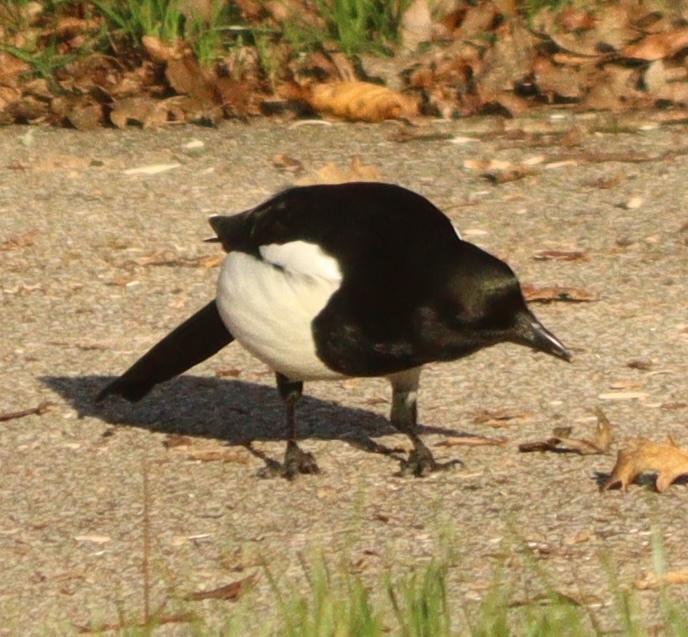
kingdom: Animalia
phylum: Chordata
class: Aves
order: Passeriformes
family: Corvidae
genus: Pica
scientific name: Pica pica
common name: Eurasian magpie
